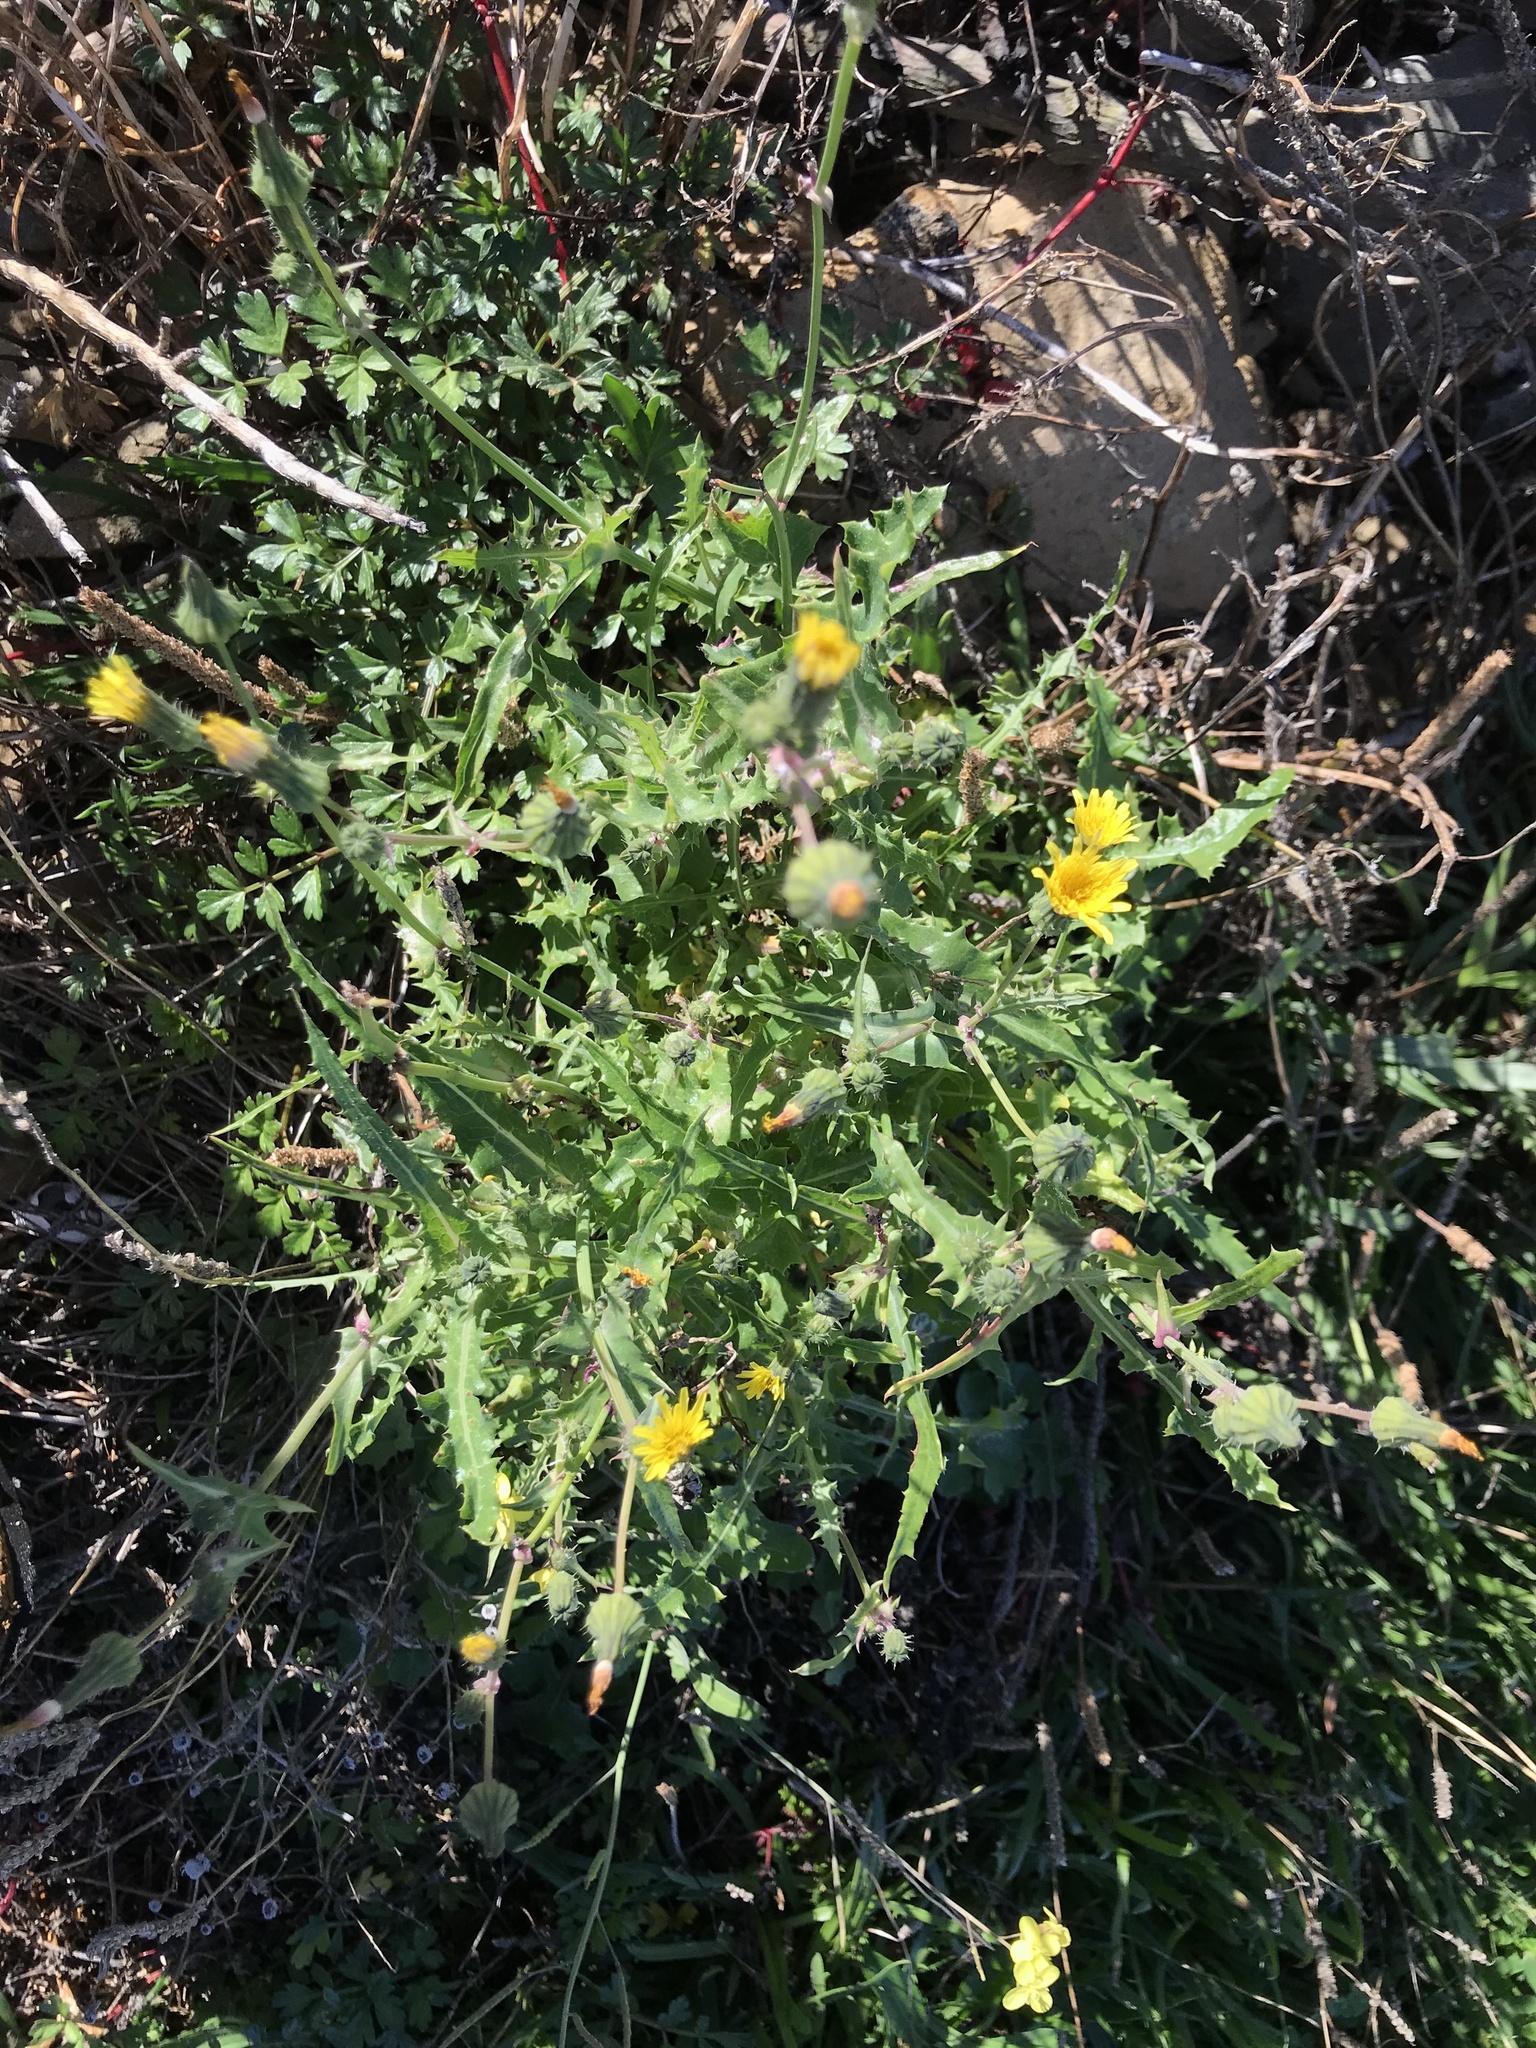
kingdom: Plantae
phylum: Tracheophyta
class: Magnoliopsida
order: Asterales
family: Asteraceae
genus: Sonchus
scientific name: Sonchus oleraceus
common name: Common sowthistle
